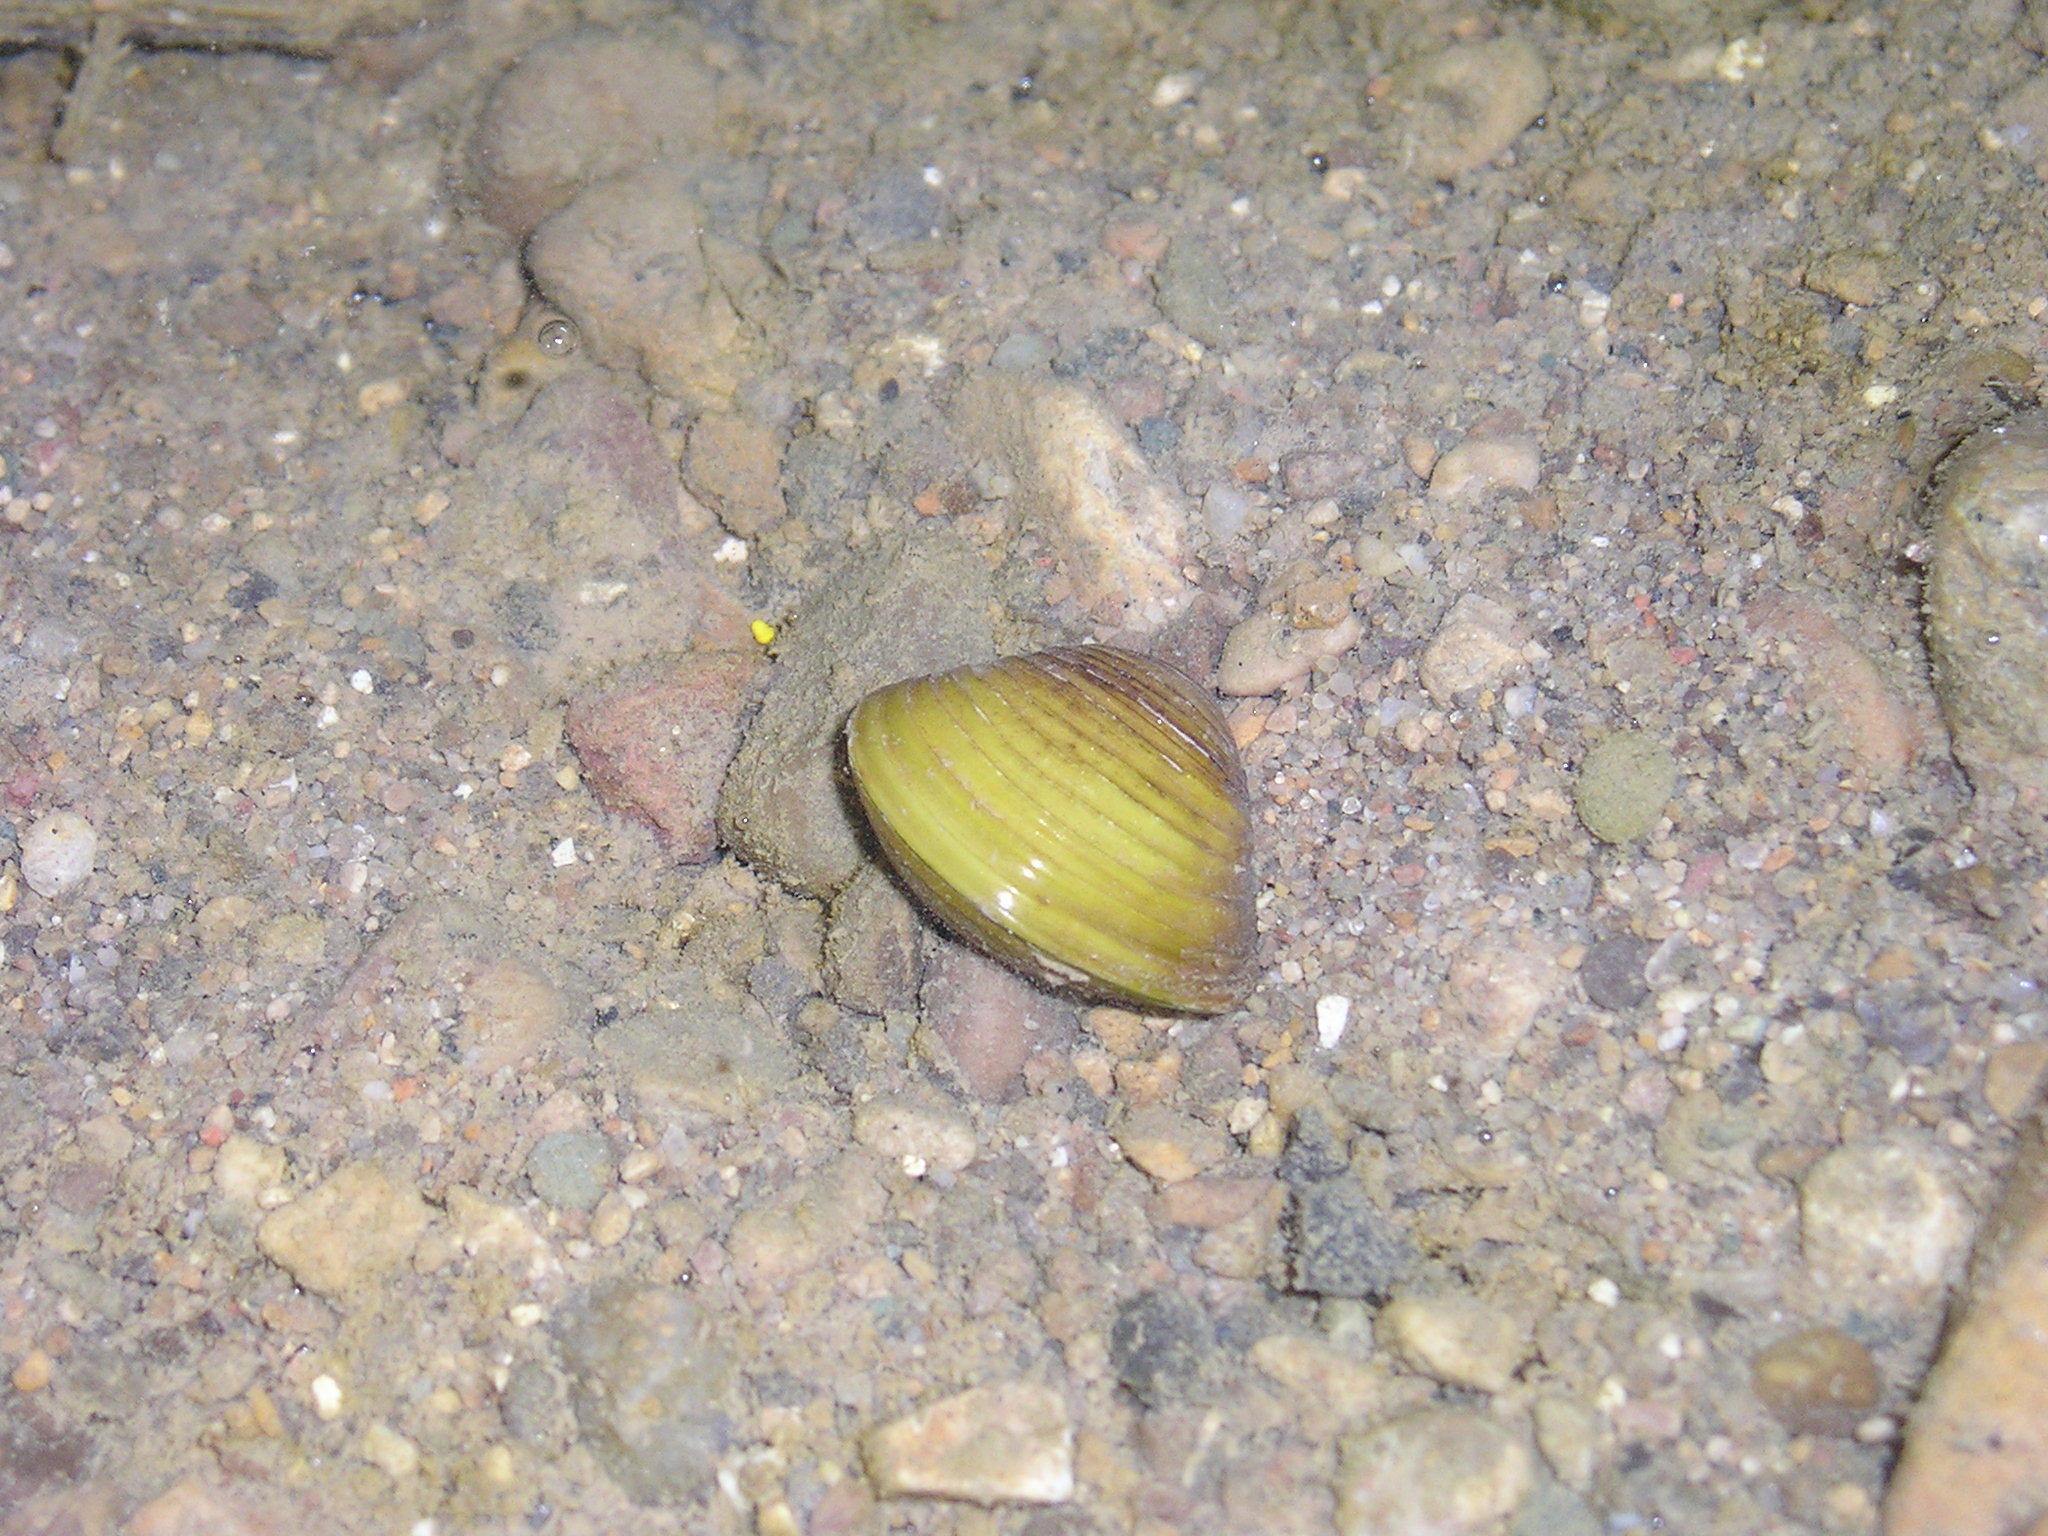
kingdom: Animalia
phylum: Mollusca
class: Bivalvia
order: Venerida
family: Cyrenidae
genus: Corbicula
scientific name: Corbicula fluminea
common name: Asian clam
